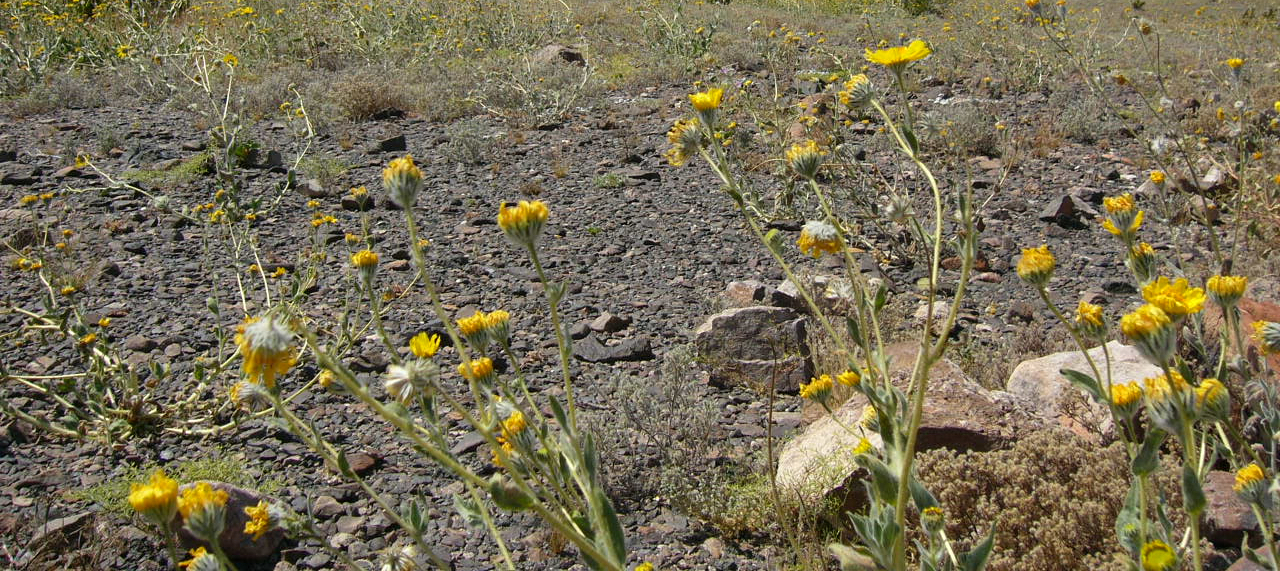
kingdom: Plantae
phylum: Tracheophyta
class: Magnoliopsida
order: Asterales
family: Asteraceae
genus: Geraea
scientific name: Geraea canescens
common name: Desert-gold
